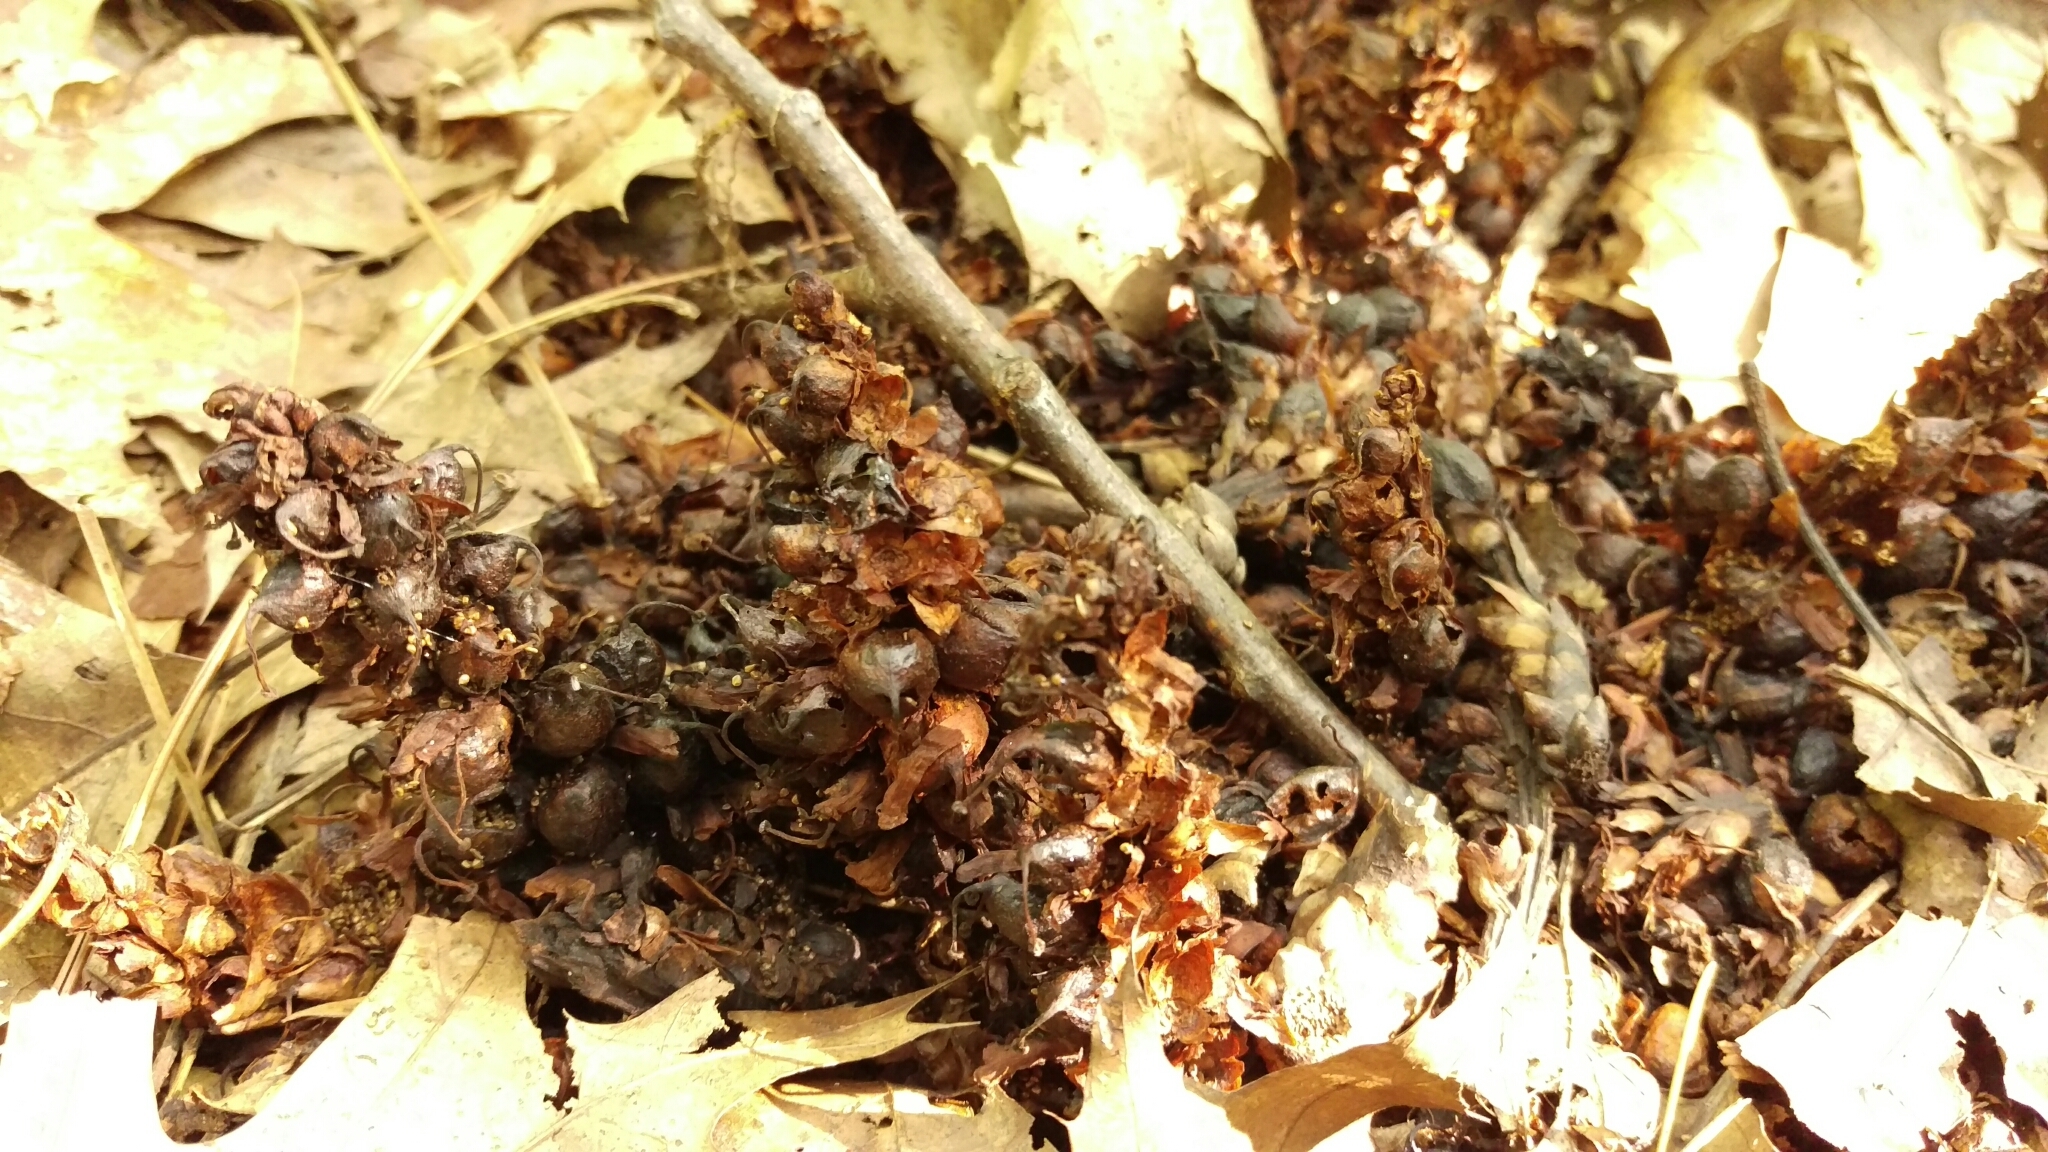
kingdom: Plantae
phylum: Tracheophyta
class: Magnoliopsida
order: Lamiales
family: Orobanchaceae
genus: Conopholis
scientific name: Conopholis americana
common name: American cancer-root
